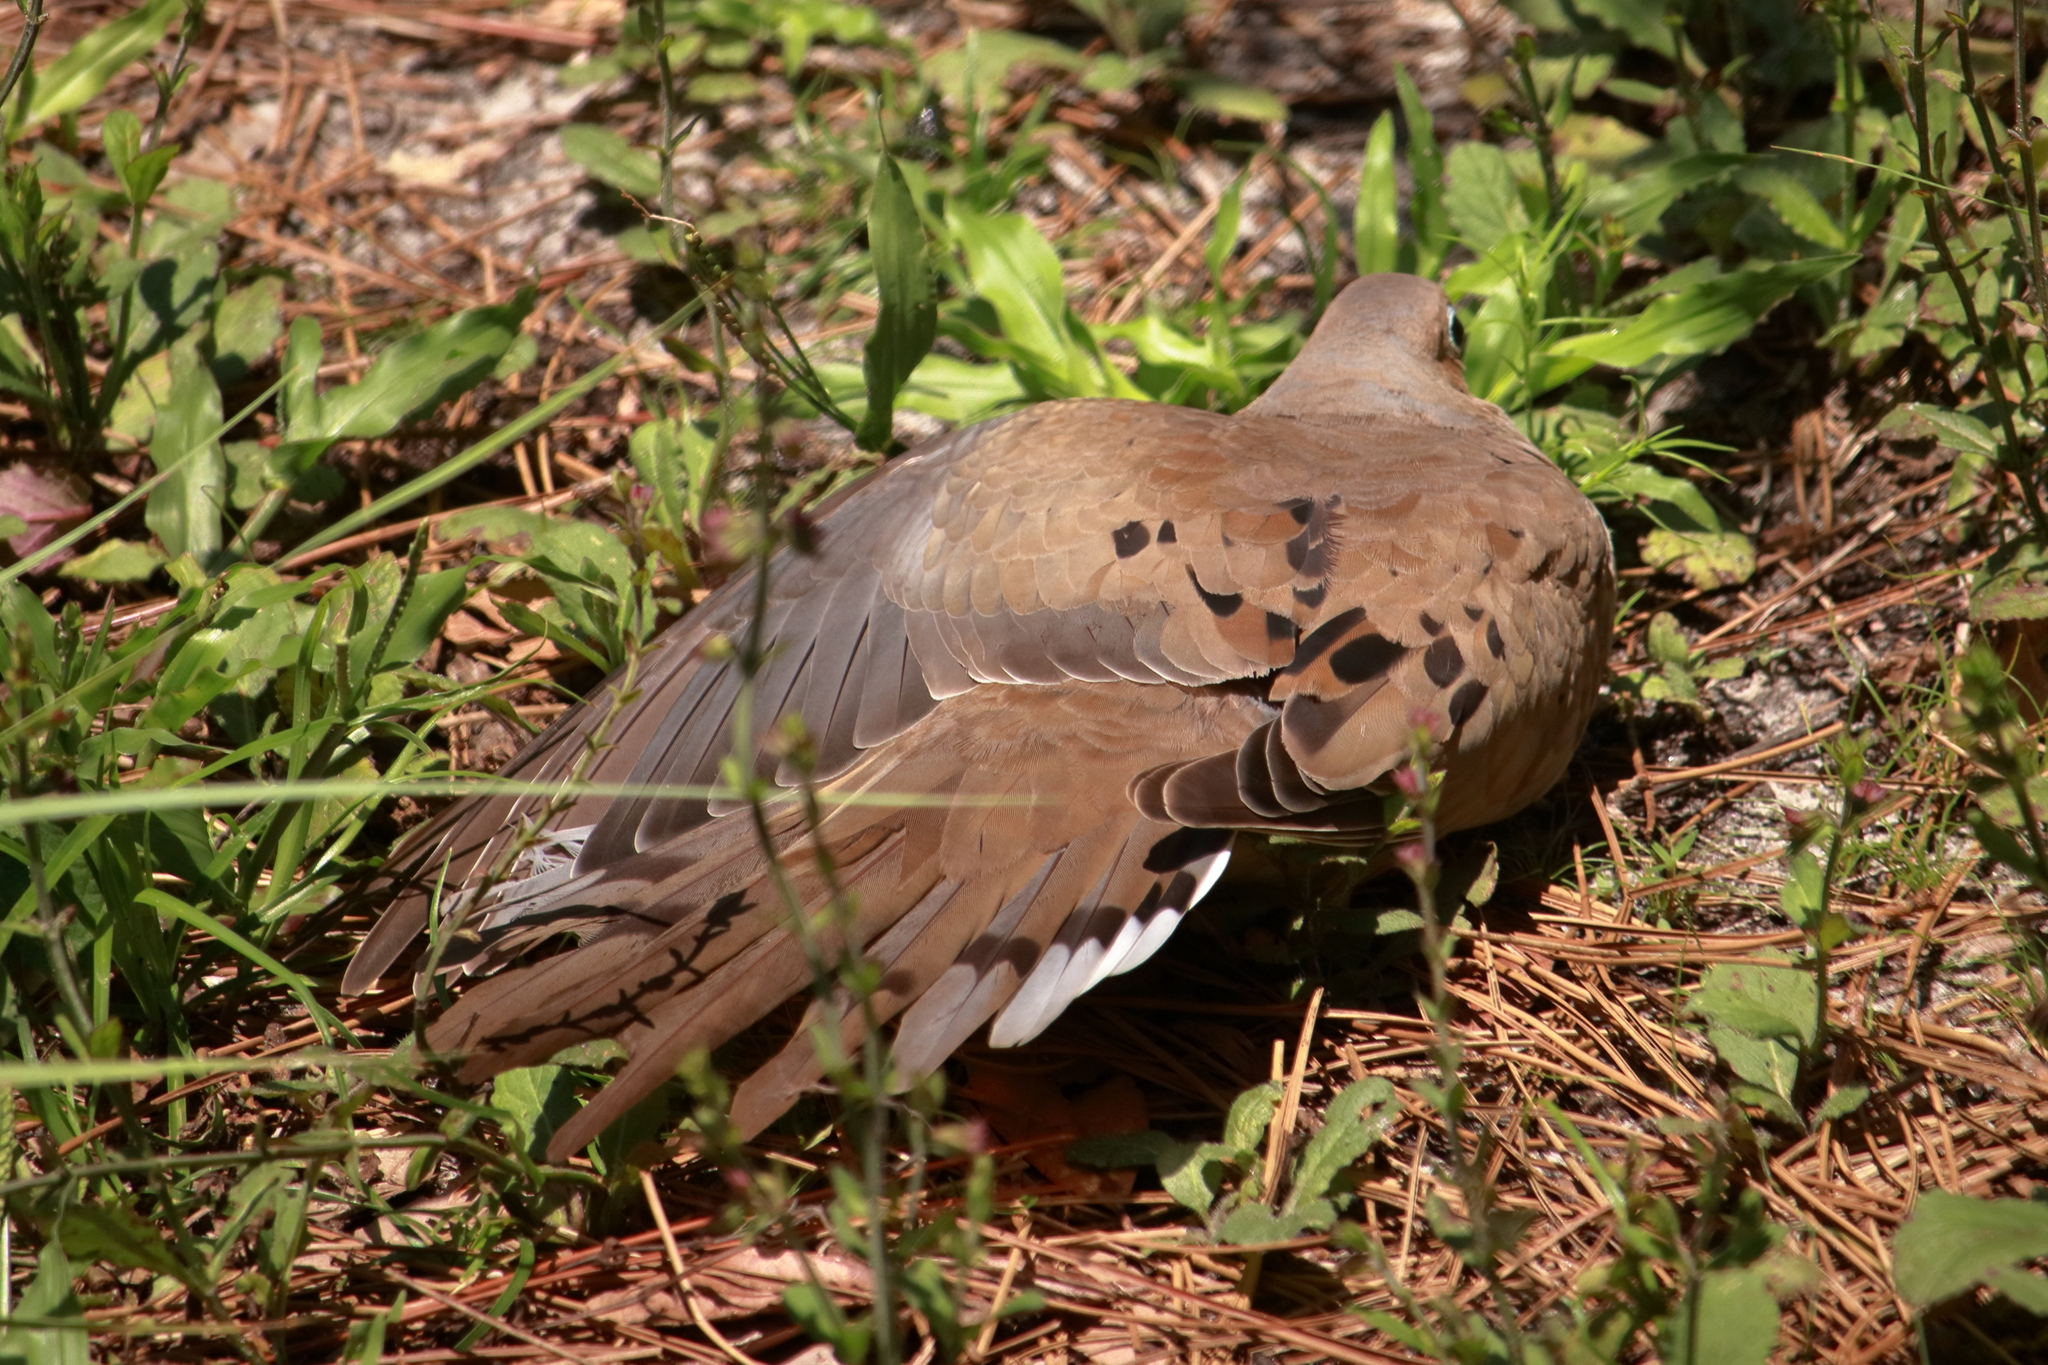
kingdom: Animalia
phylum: Chordata
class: Aves
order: Columbiformes
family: Columbidae
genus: Zenaida
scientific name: Zenaida macroura
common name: Mourning dove
